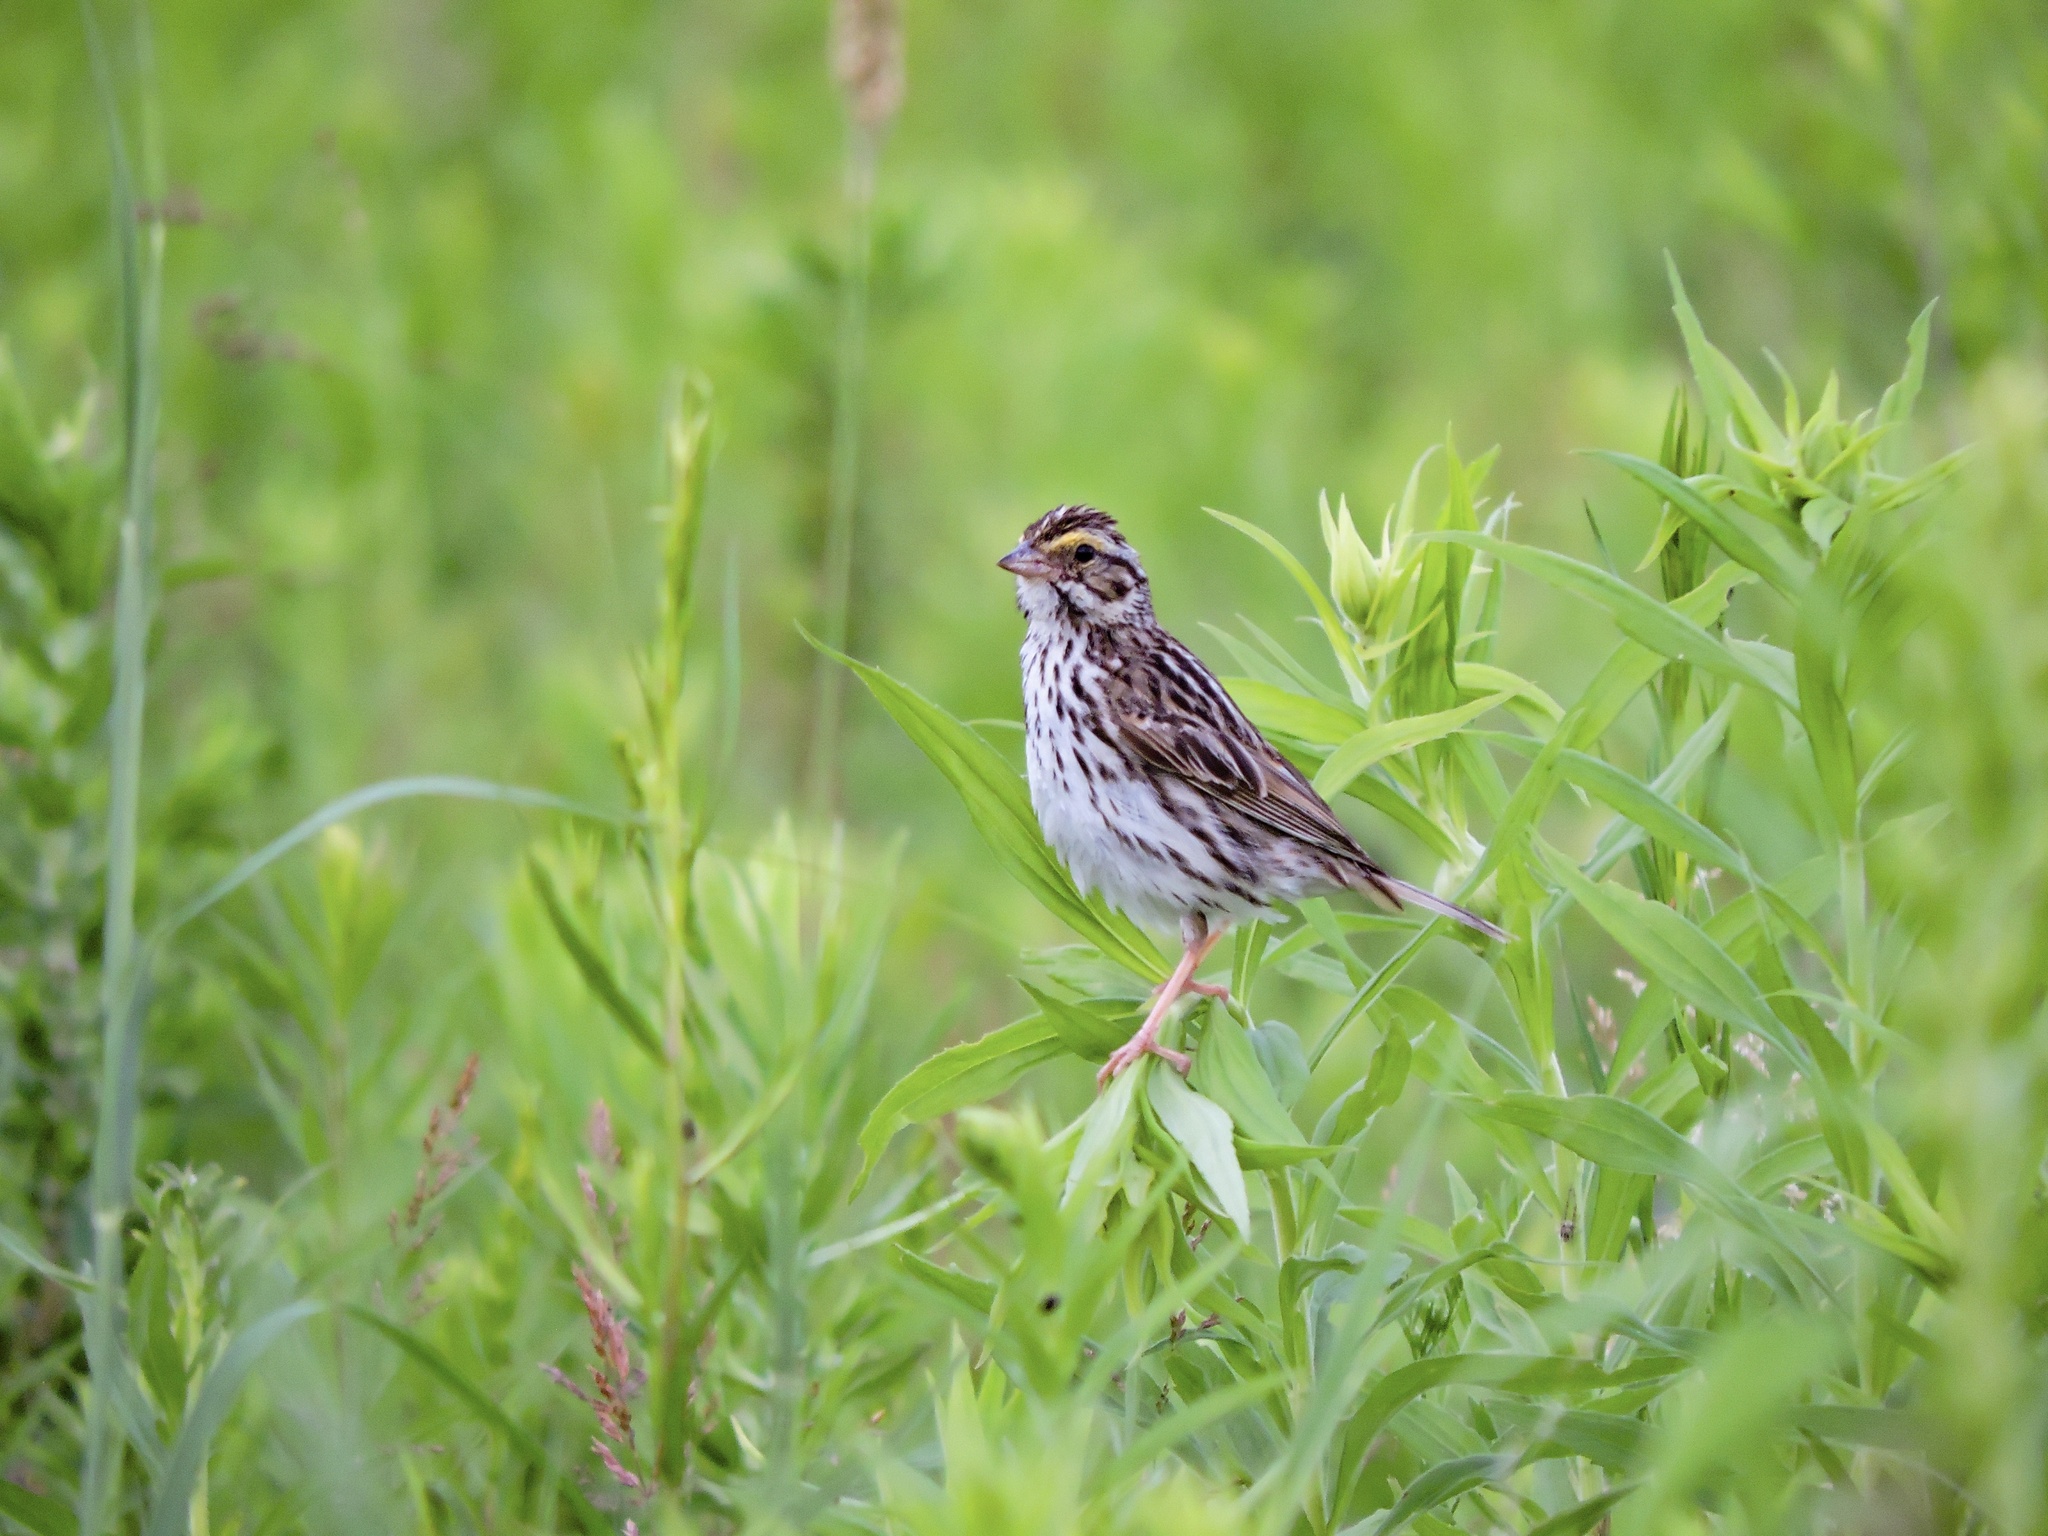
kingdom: Animalia
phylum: Chordata
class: Aves
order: Passeriformes
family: Passerellidae
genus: Passerculus
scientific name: Passerculus sandwichensis
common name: Savannah sparrow
